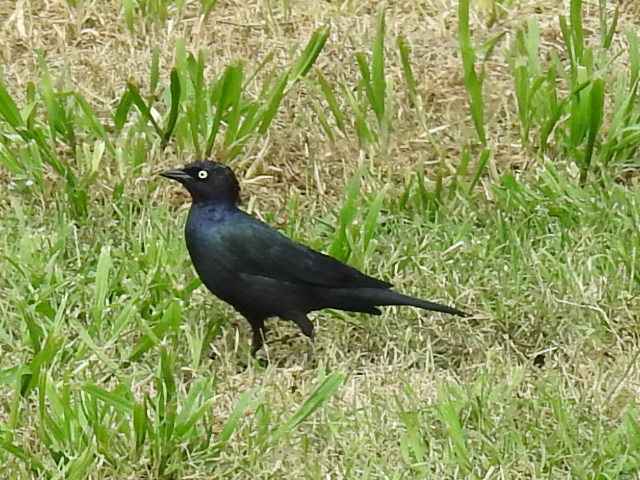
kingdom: Animalia
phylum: Chordata
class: Aves
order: Passeriformes
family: Icteridae
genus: Euphagus
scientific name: Euphagus cyanocephalus
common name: Brewer's blackbird
